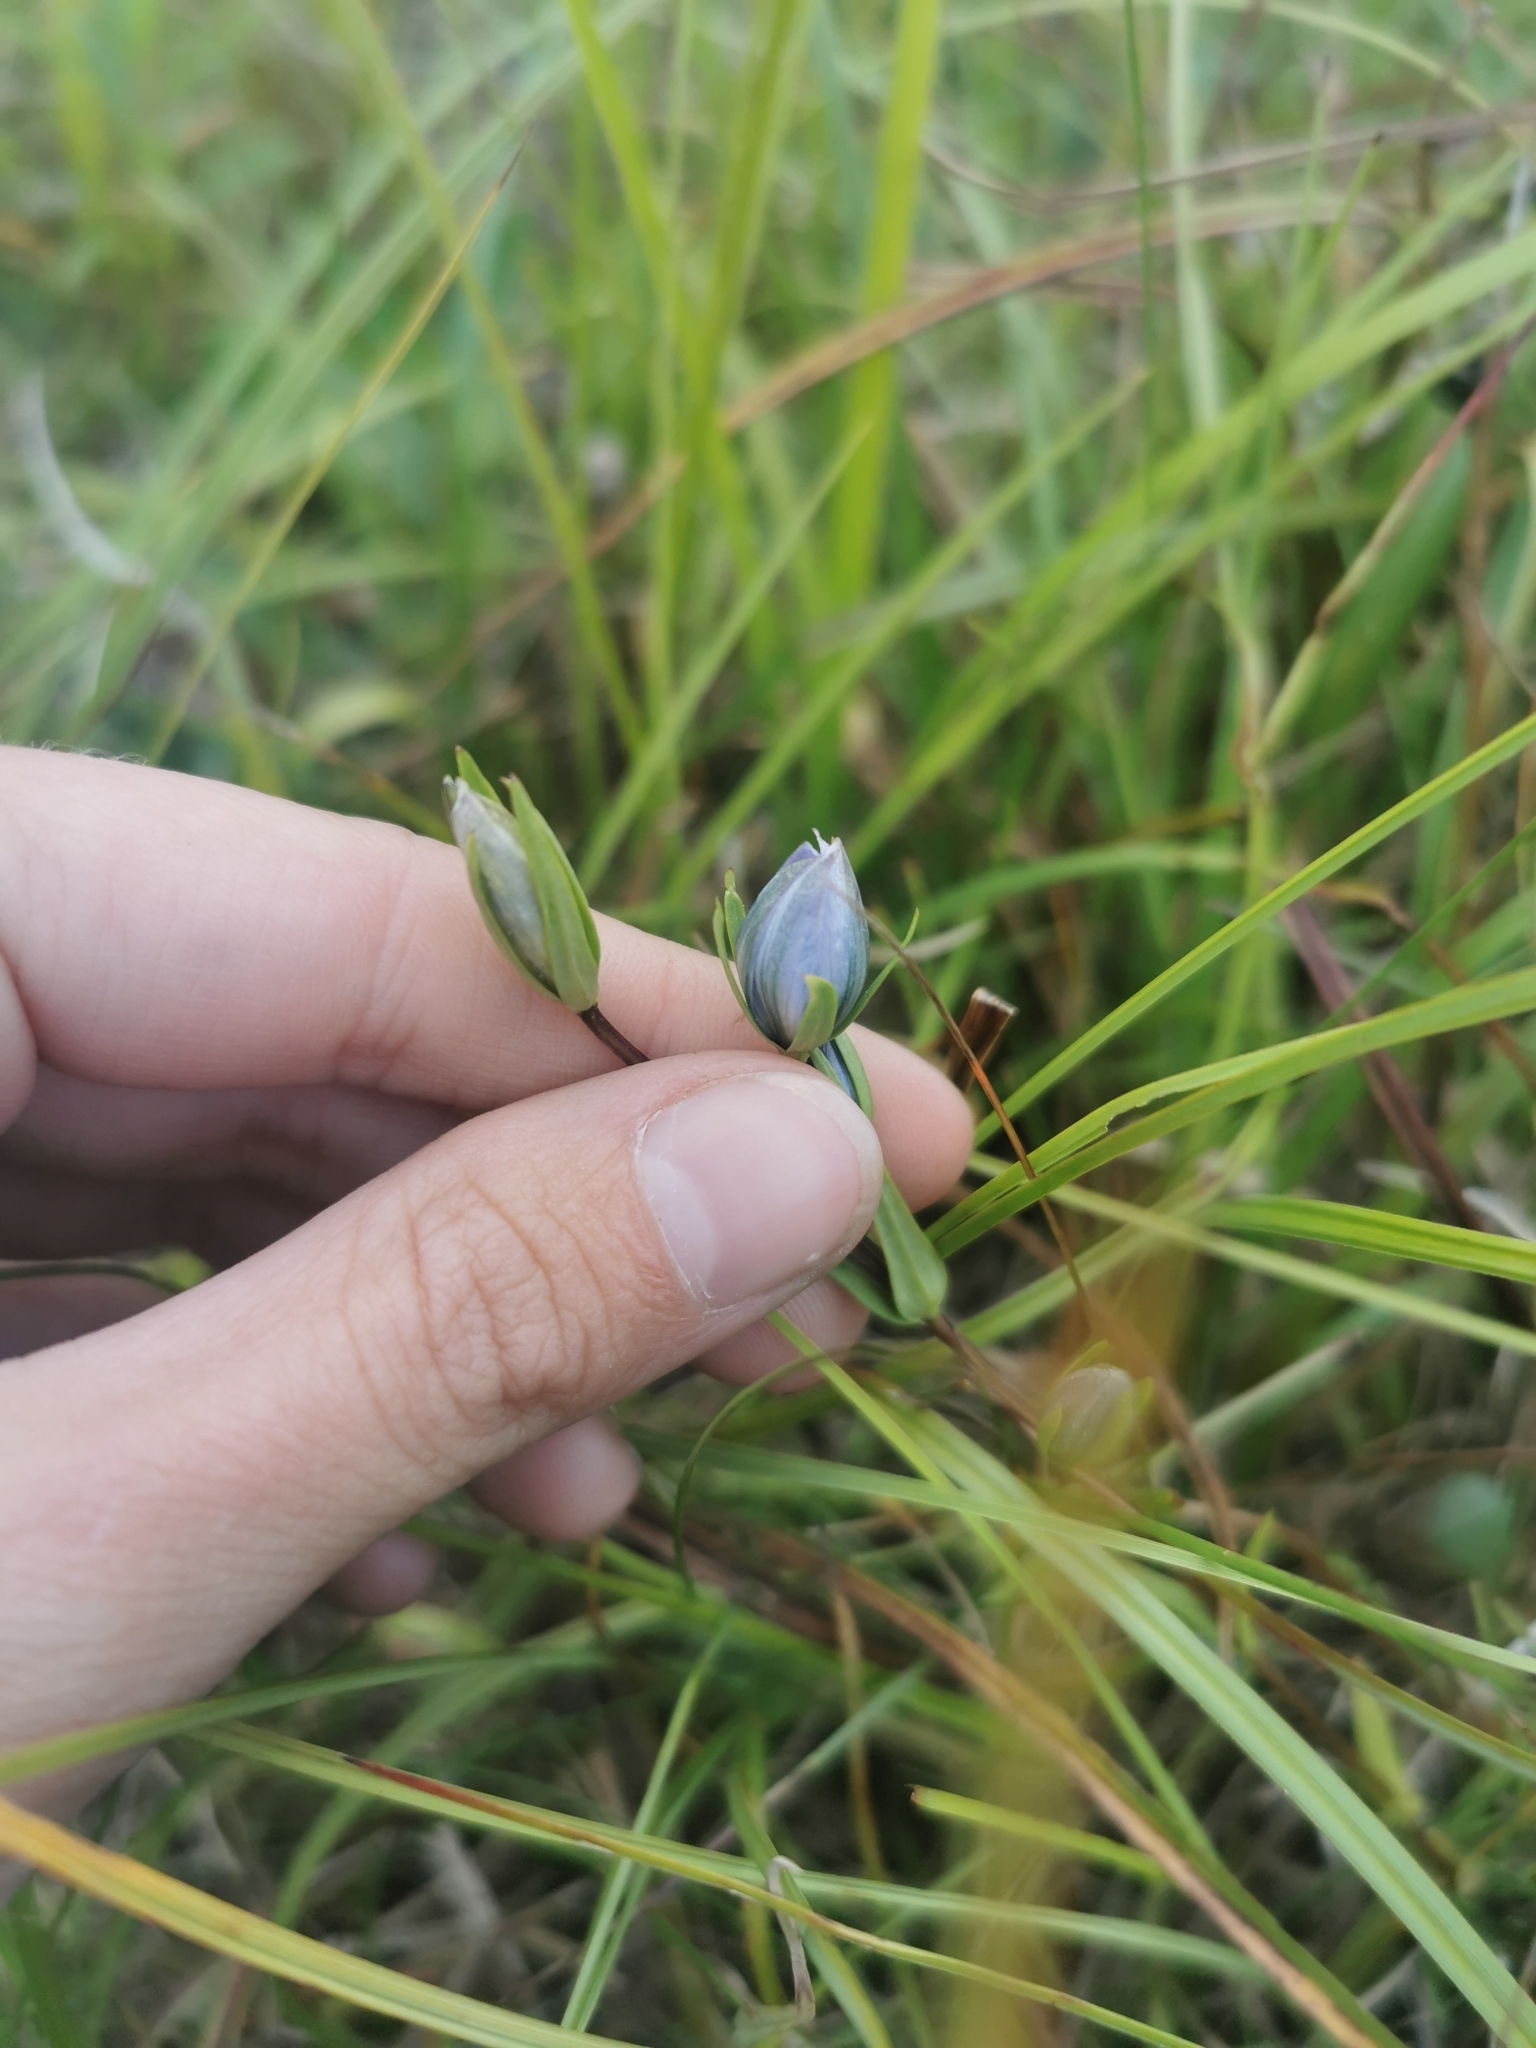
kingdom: Plantae
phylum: Tracheophyta
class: Magnoliopsida
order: Gentianales
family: Gentianaceae
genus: Lomatogonium
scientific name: Lomatogonium rotatum
